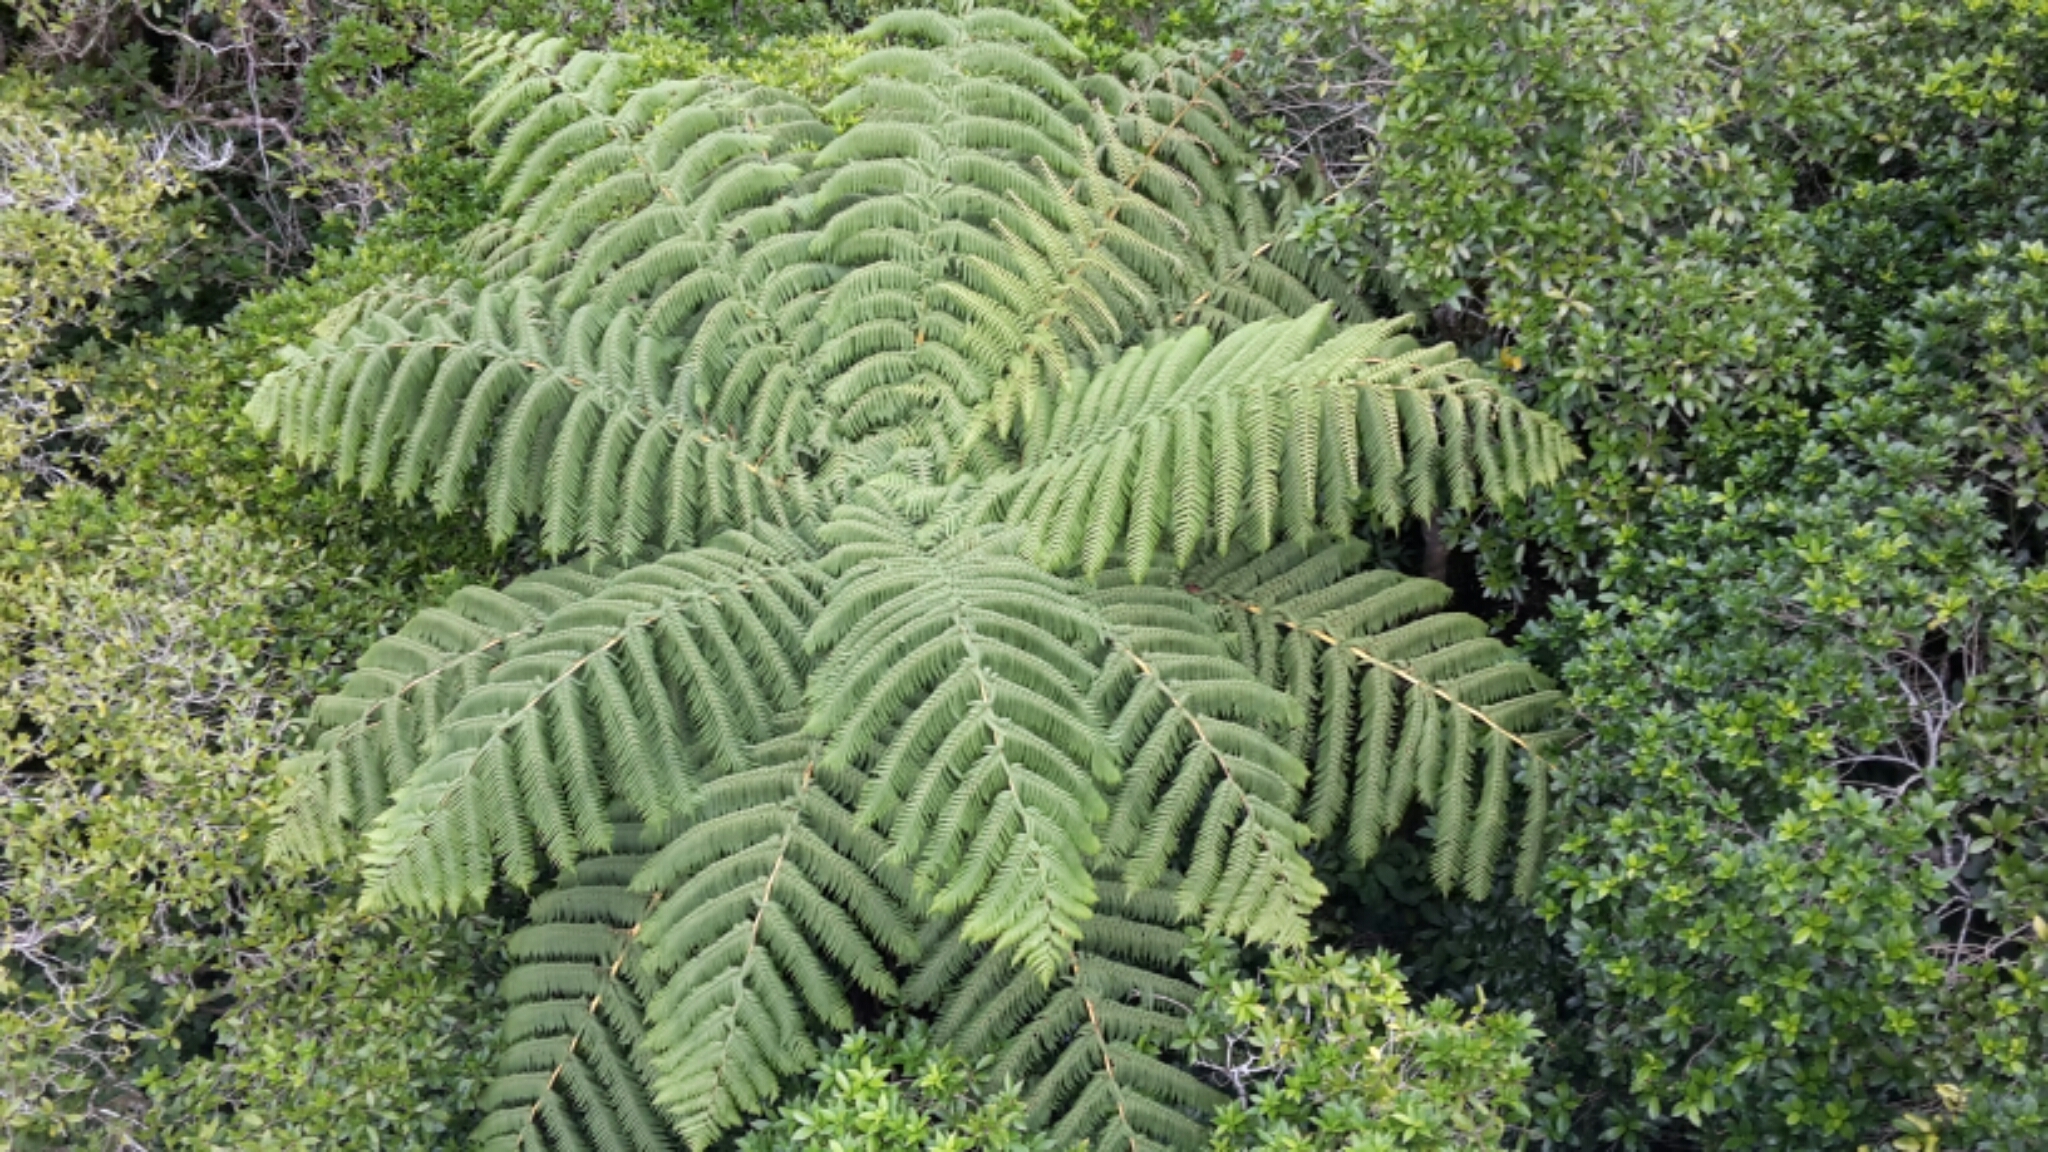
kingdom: Plantae
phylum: Tracheophyta
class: Polypodiopsida
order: Cyatheales
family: Cyatheaceae
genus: Sphaeropteris
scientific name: Sphaeropteris medullaris
